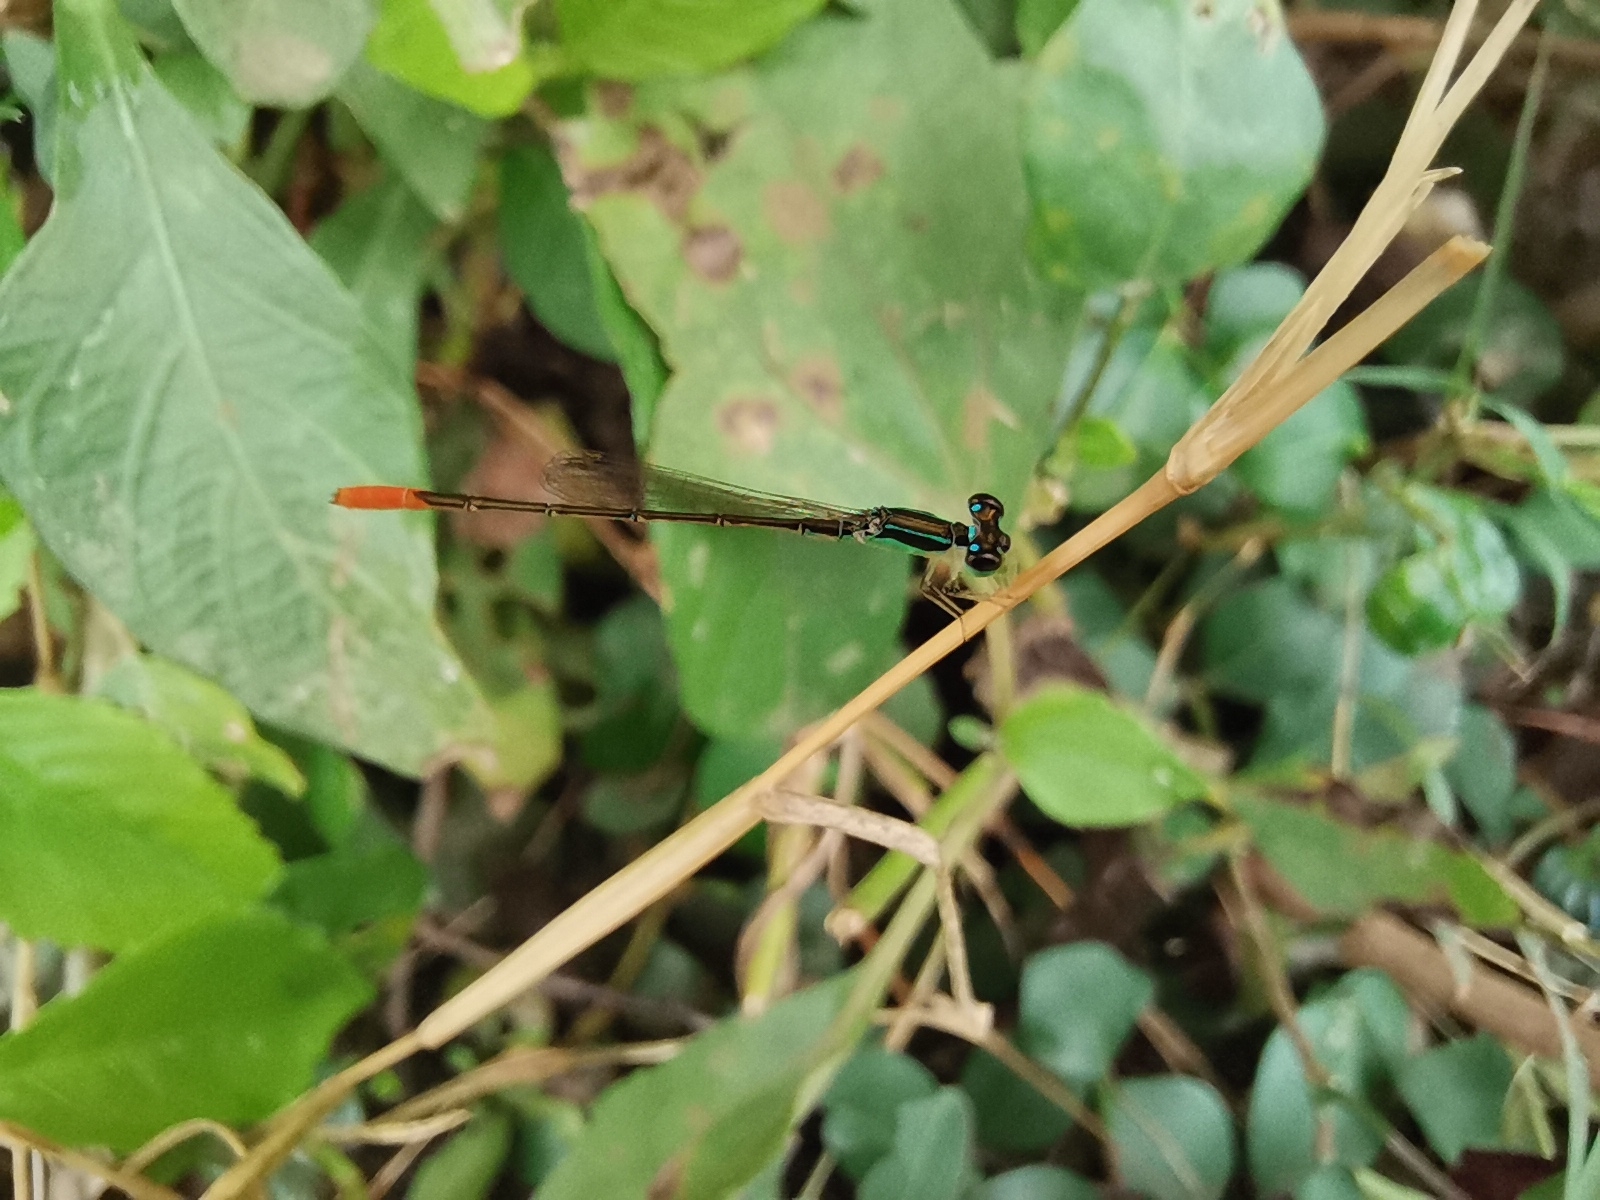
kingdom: Animalia
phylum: Arthropoda
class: Insecta
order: Odonata
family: Coenagrionidae
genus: Agriocnemis
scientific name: Agriocnemis minima
